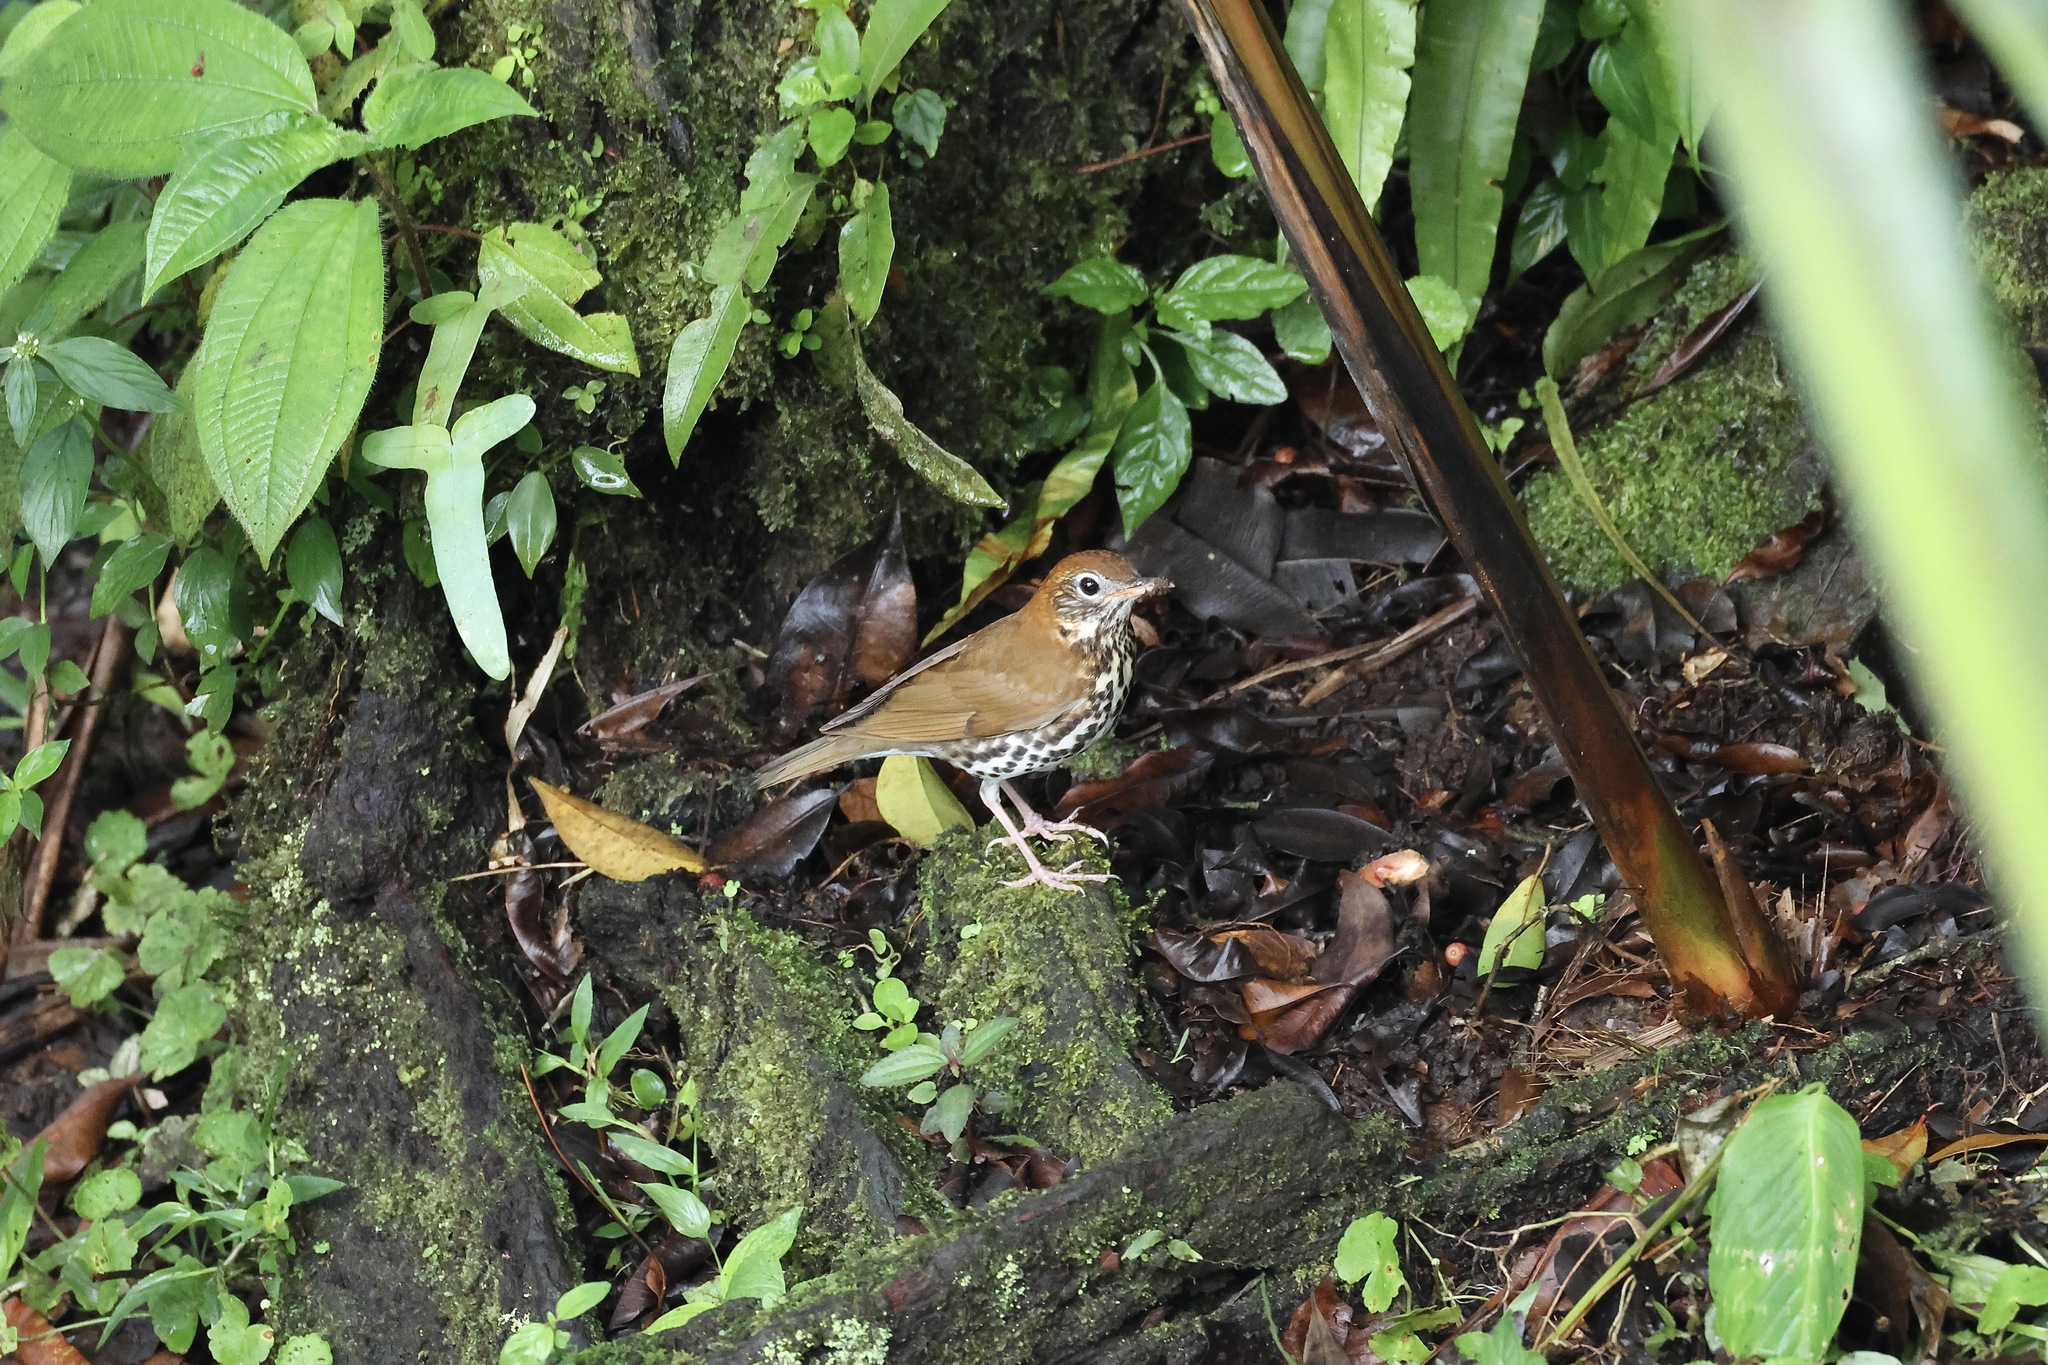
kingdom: Animalia
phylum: Chordata
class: Aves
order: Passeriformes
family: Turdidae
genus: Hylocichla
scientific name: Hylocichla mustelina
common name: Wood thrush
